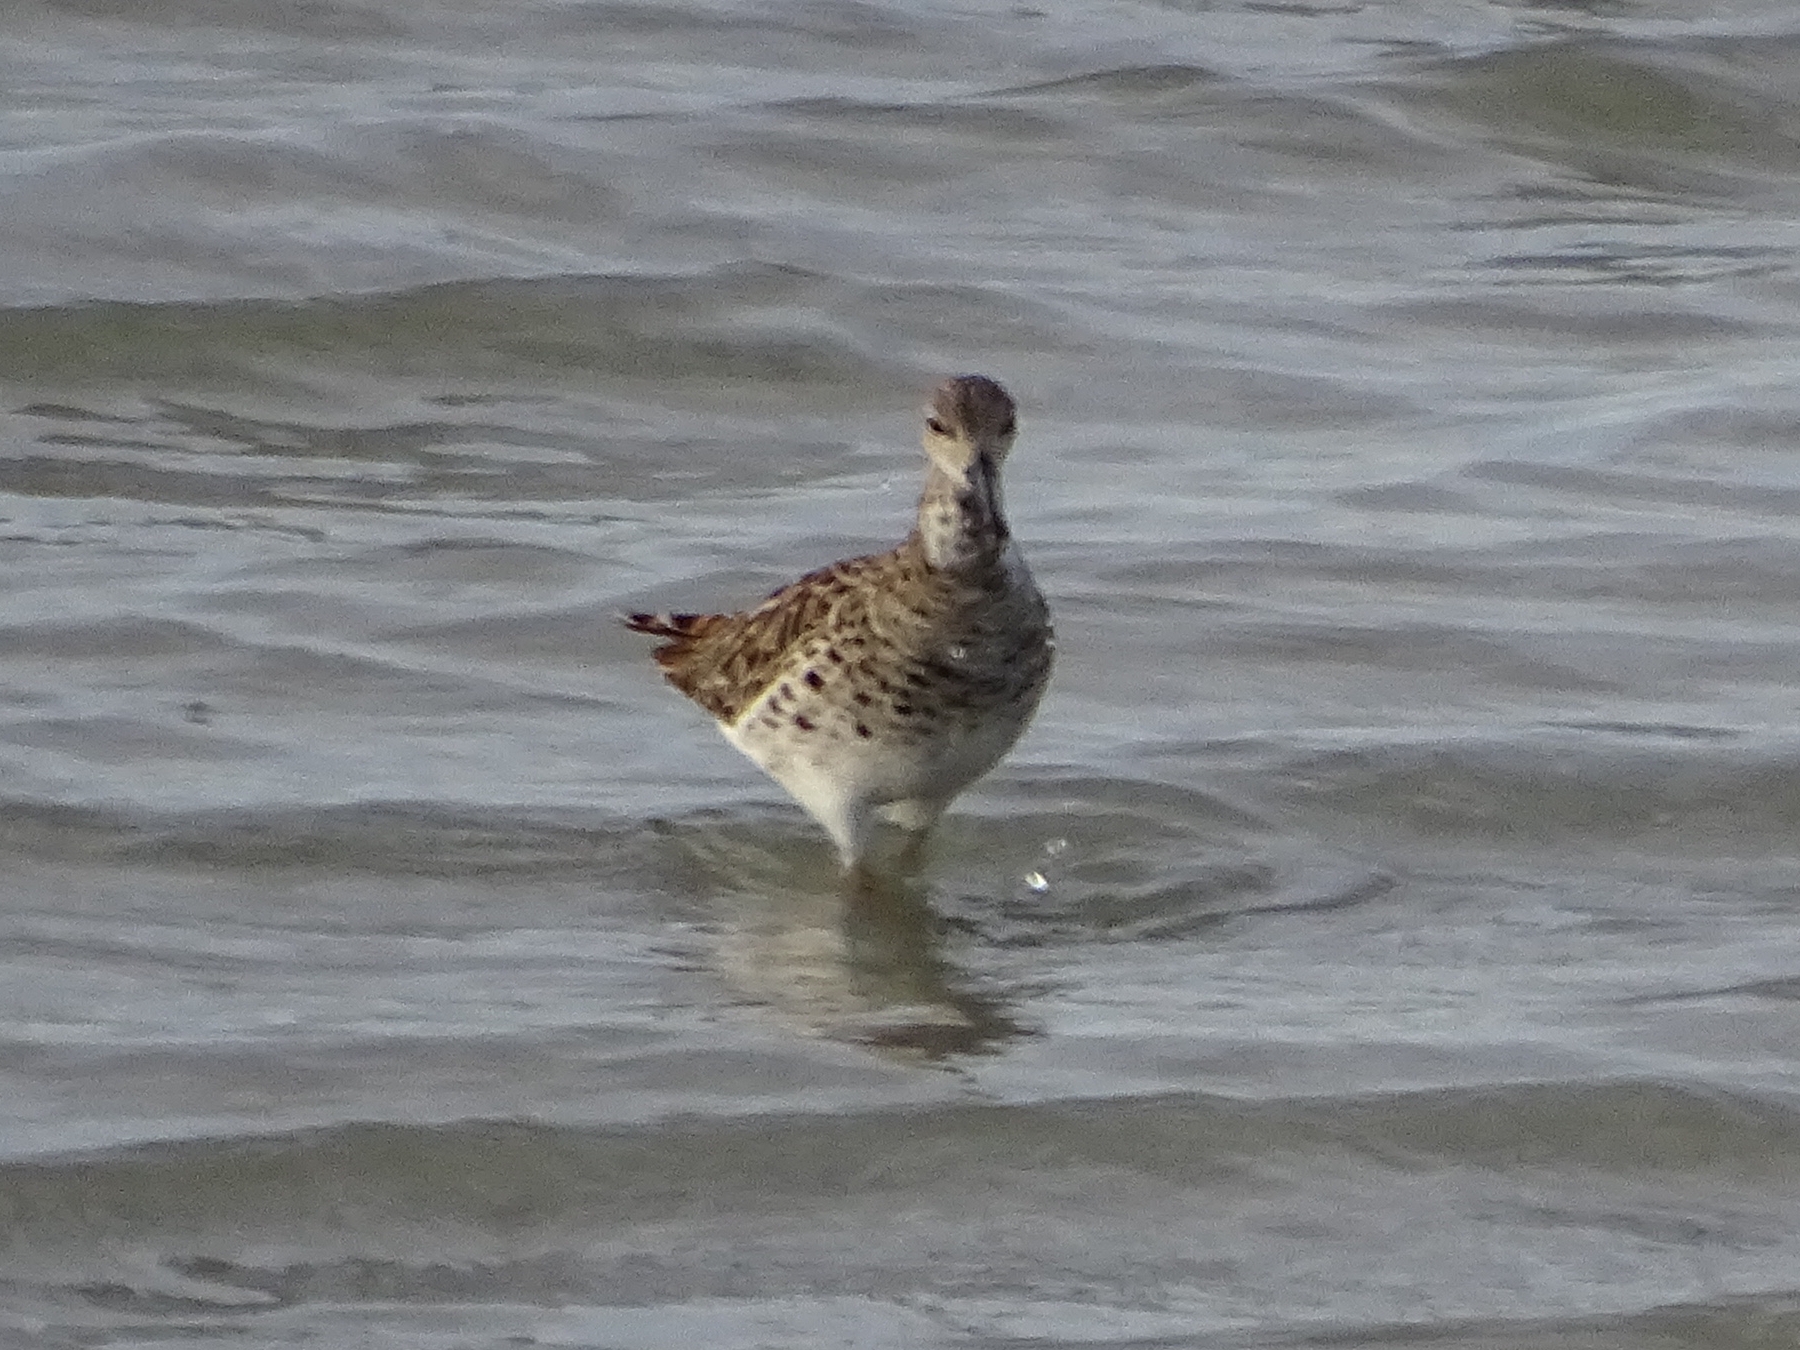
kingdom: Animalia
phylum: Chordata
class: Aves
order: Charadriiformes
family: Scolopacidae
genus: Calidris
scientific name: Calidris pugnax
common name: Ruff
